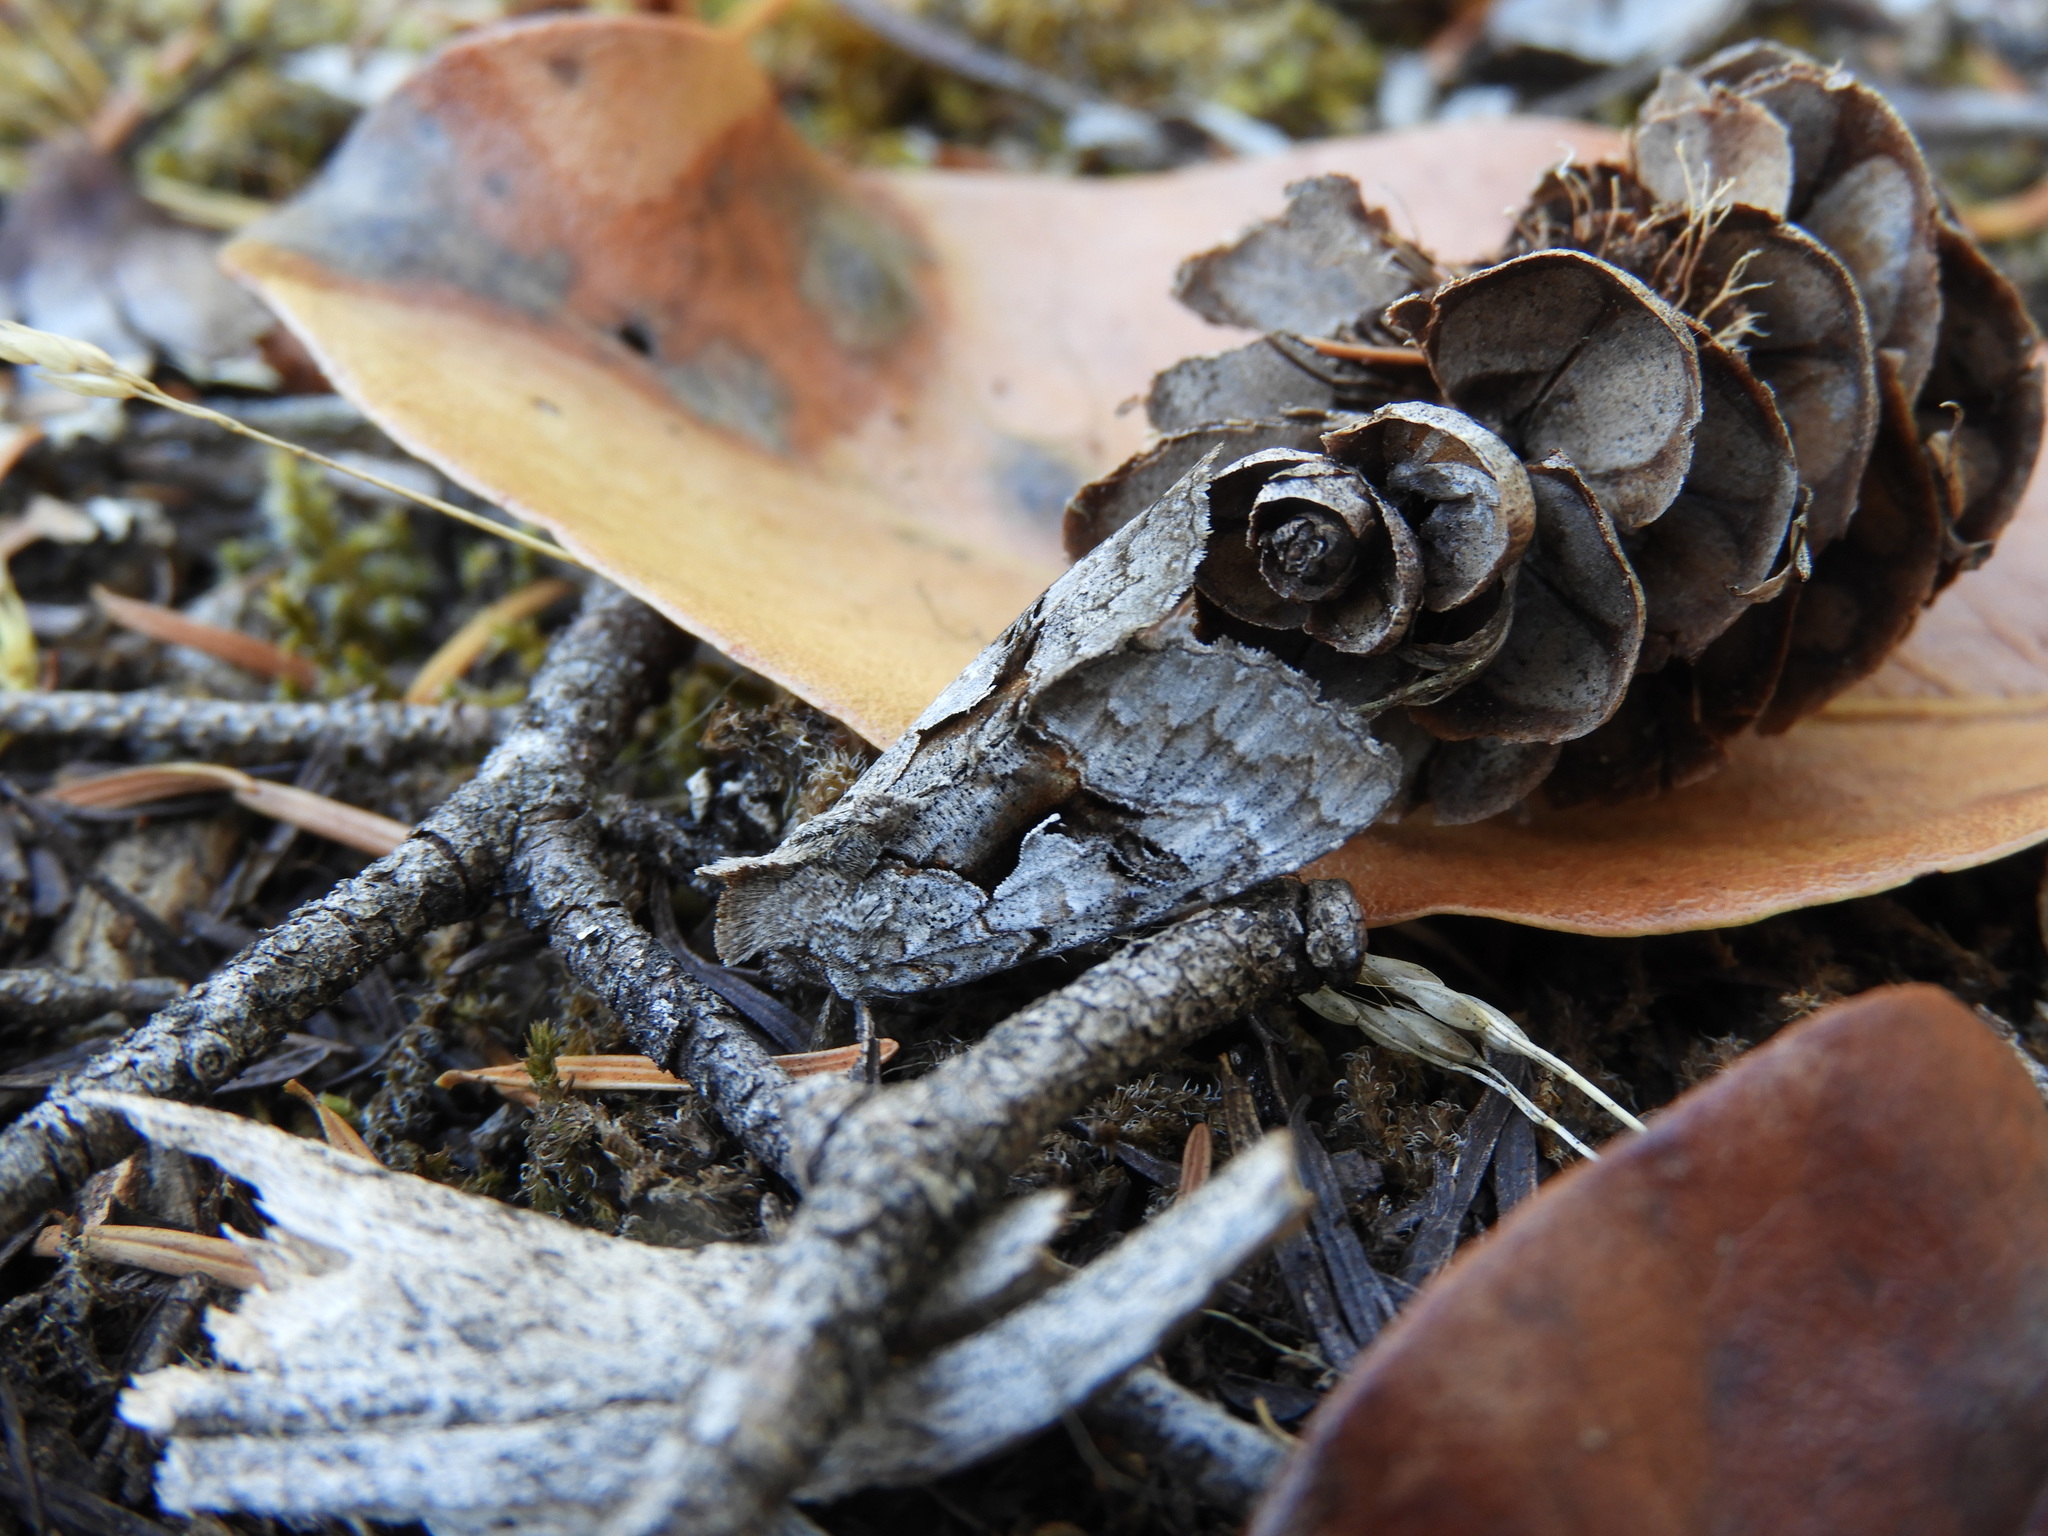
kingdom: Animalia
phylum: Arthropoda
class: Insecta
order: Lepidoptera
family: Noctuidae
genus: Syngrapha
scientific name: Syngrapha epigaea
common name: Epigaea looper moth
